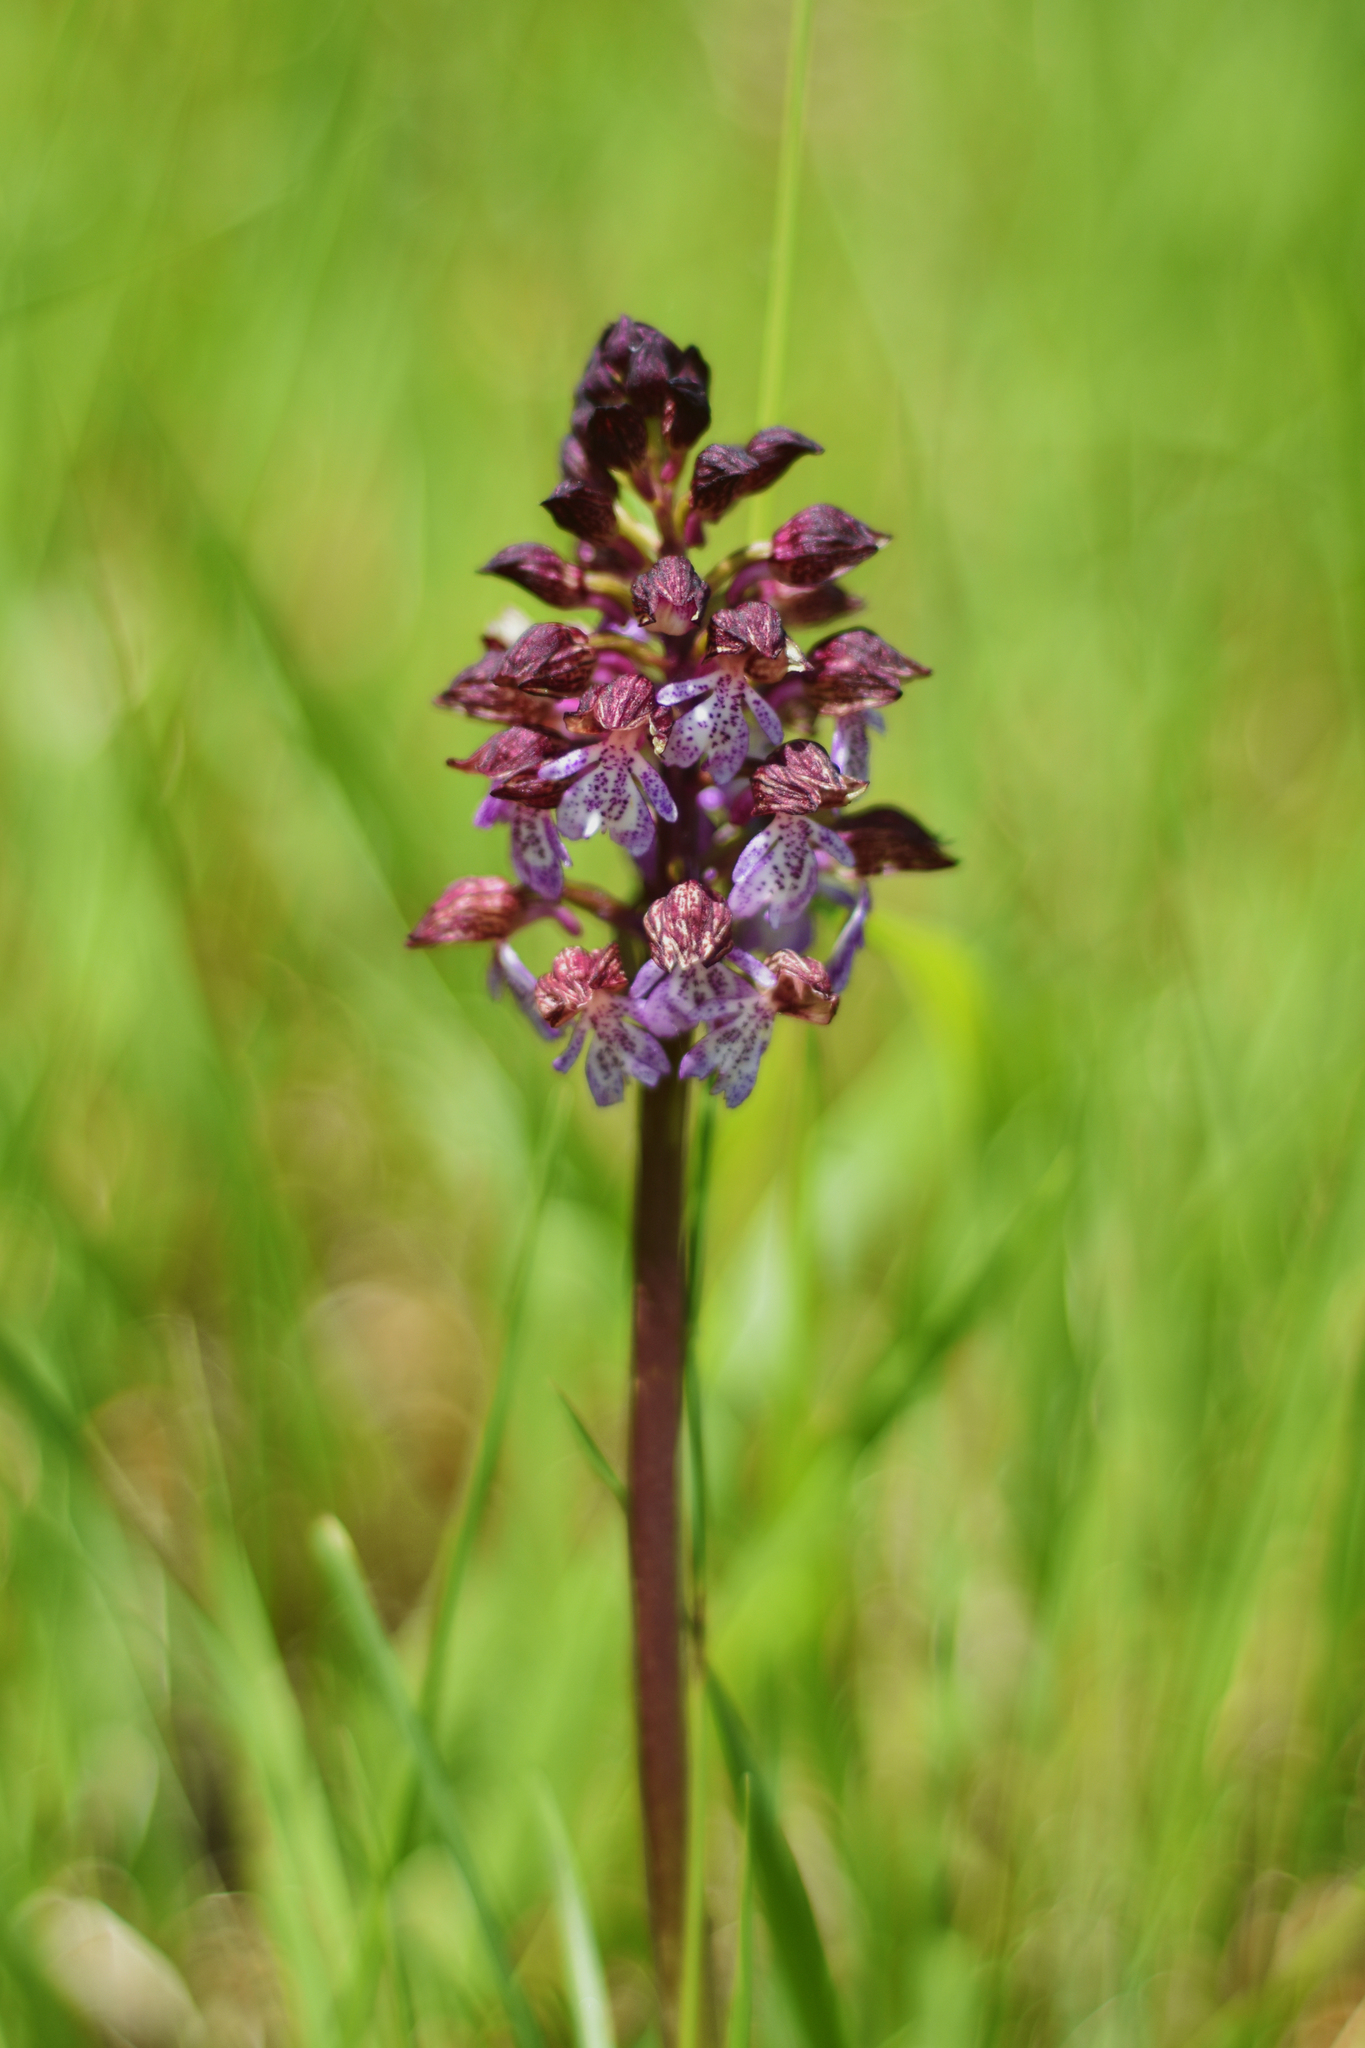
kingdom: Plantae
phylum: Tracheophyta
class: Liliopsida
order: Asparagales
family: Orchidaceae
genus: Orchis
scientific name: Orchis purpurea
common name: Lady orchid
